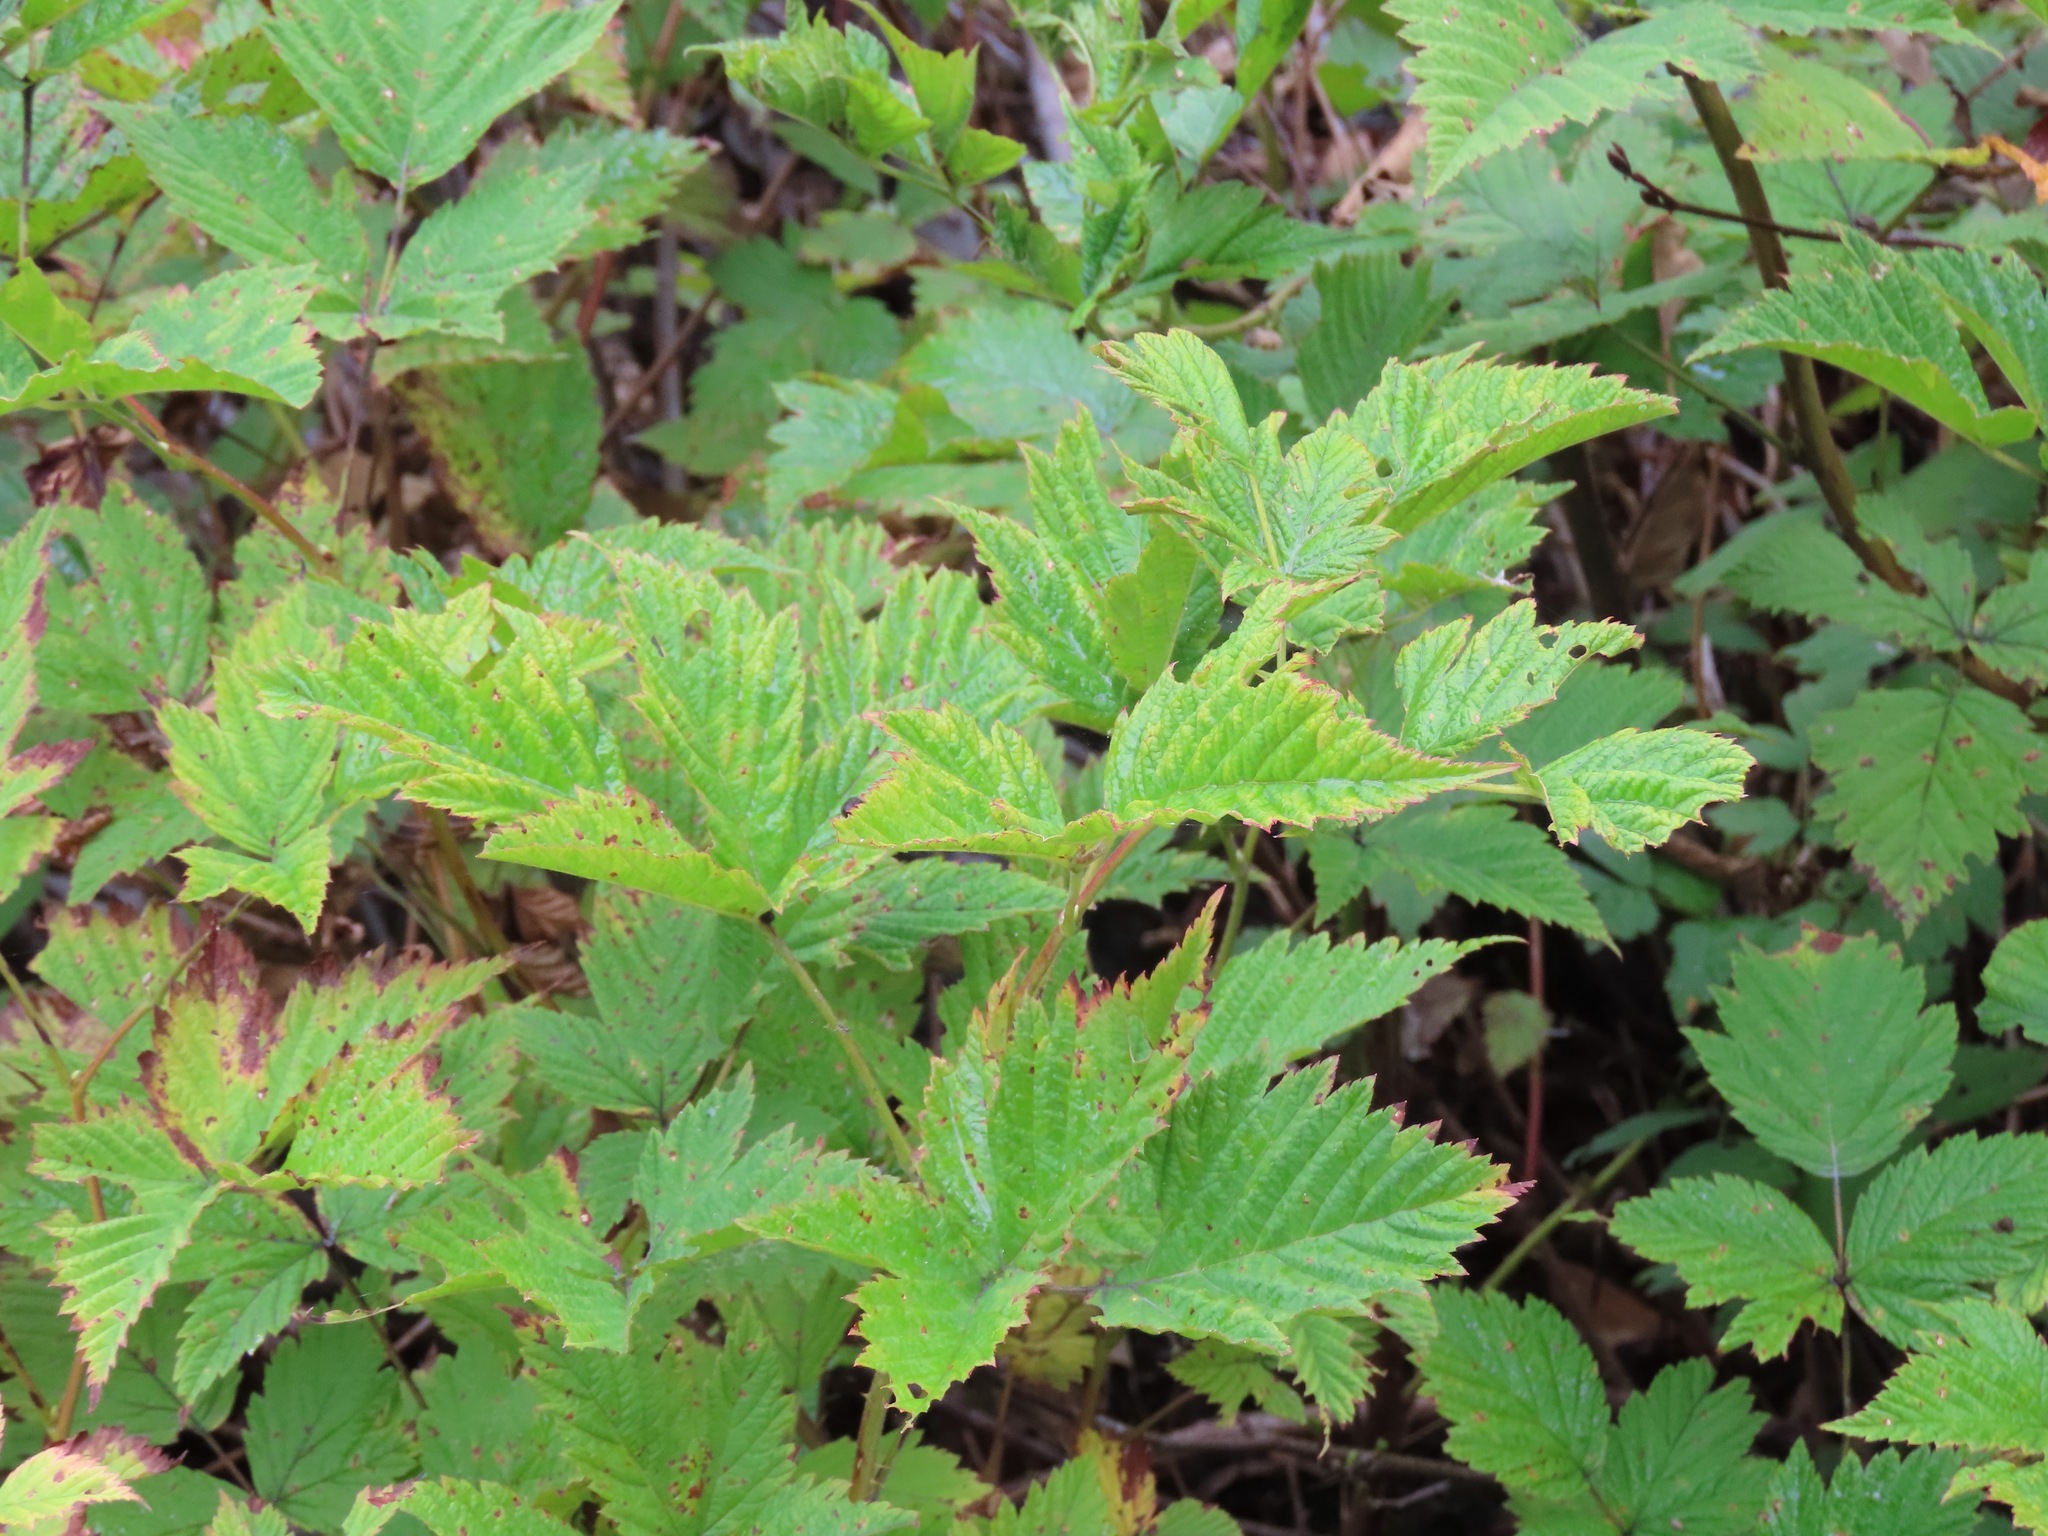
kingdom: Plantae
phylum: Tracheophyta
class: Magnoliopsida
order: Rosales
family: Rosaceae
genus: Rubus
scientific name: Rubus spectabilis
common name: Salmonberry
